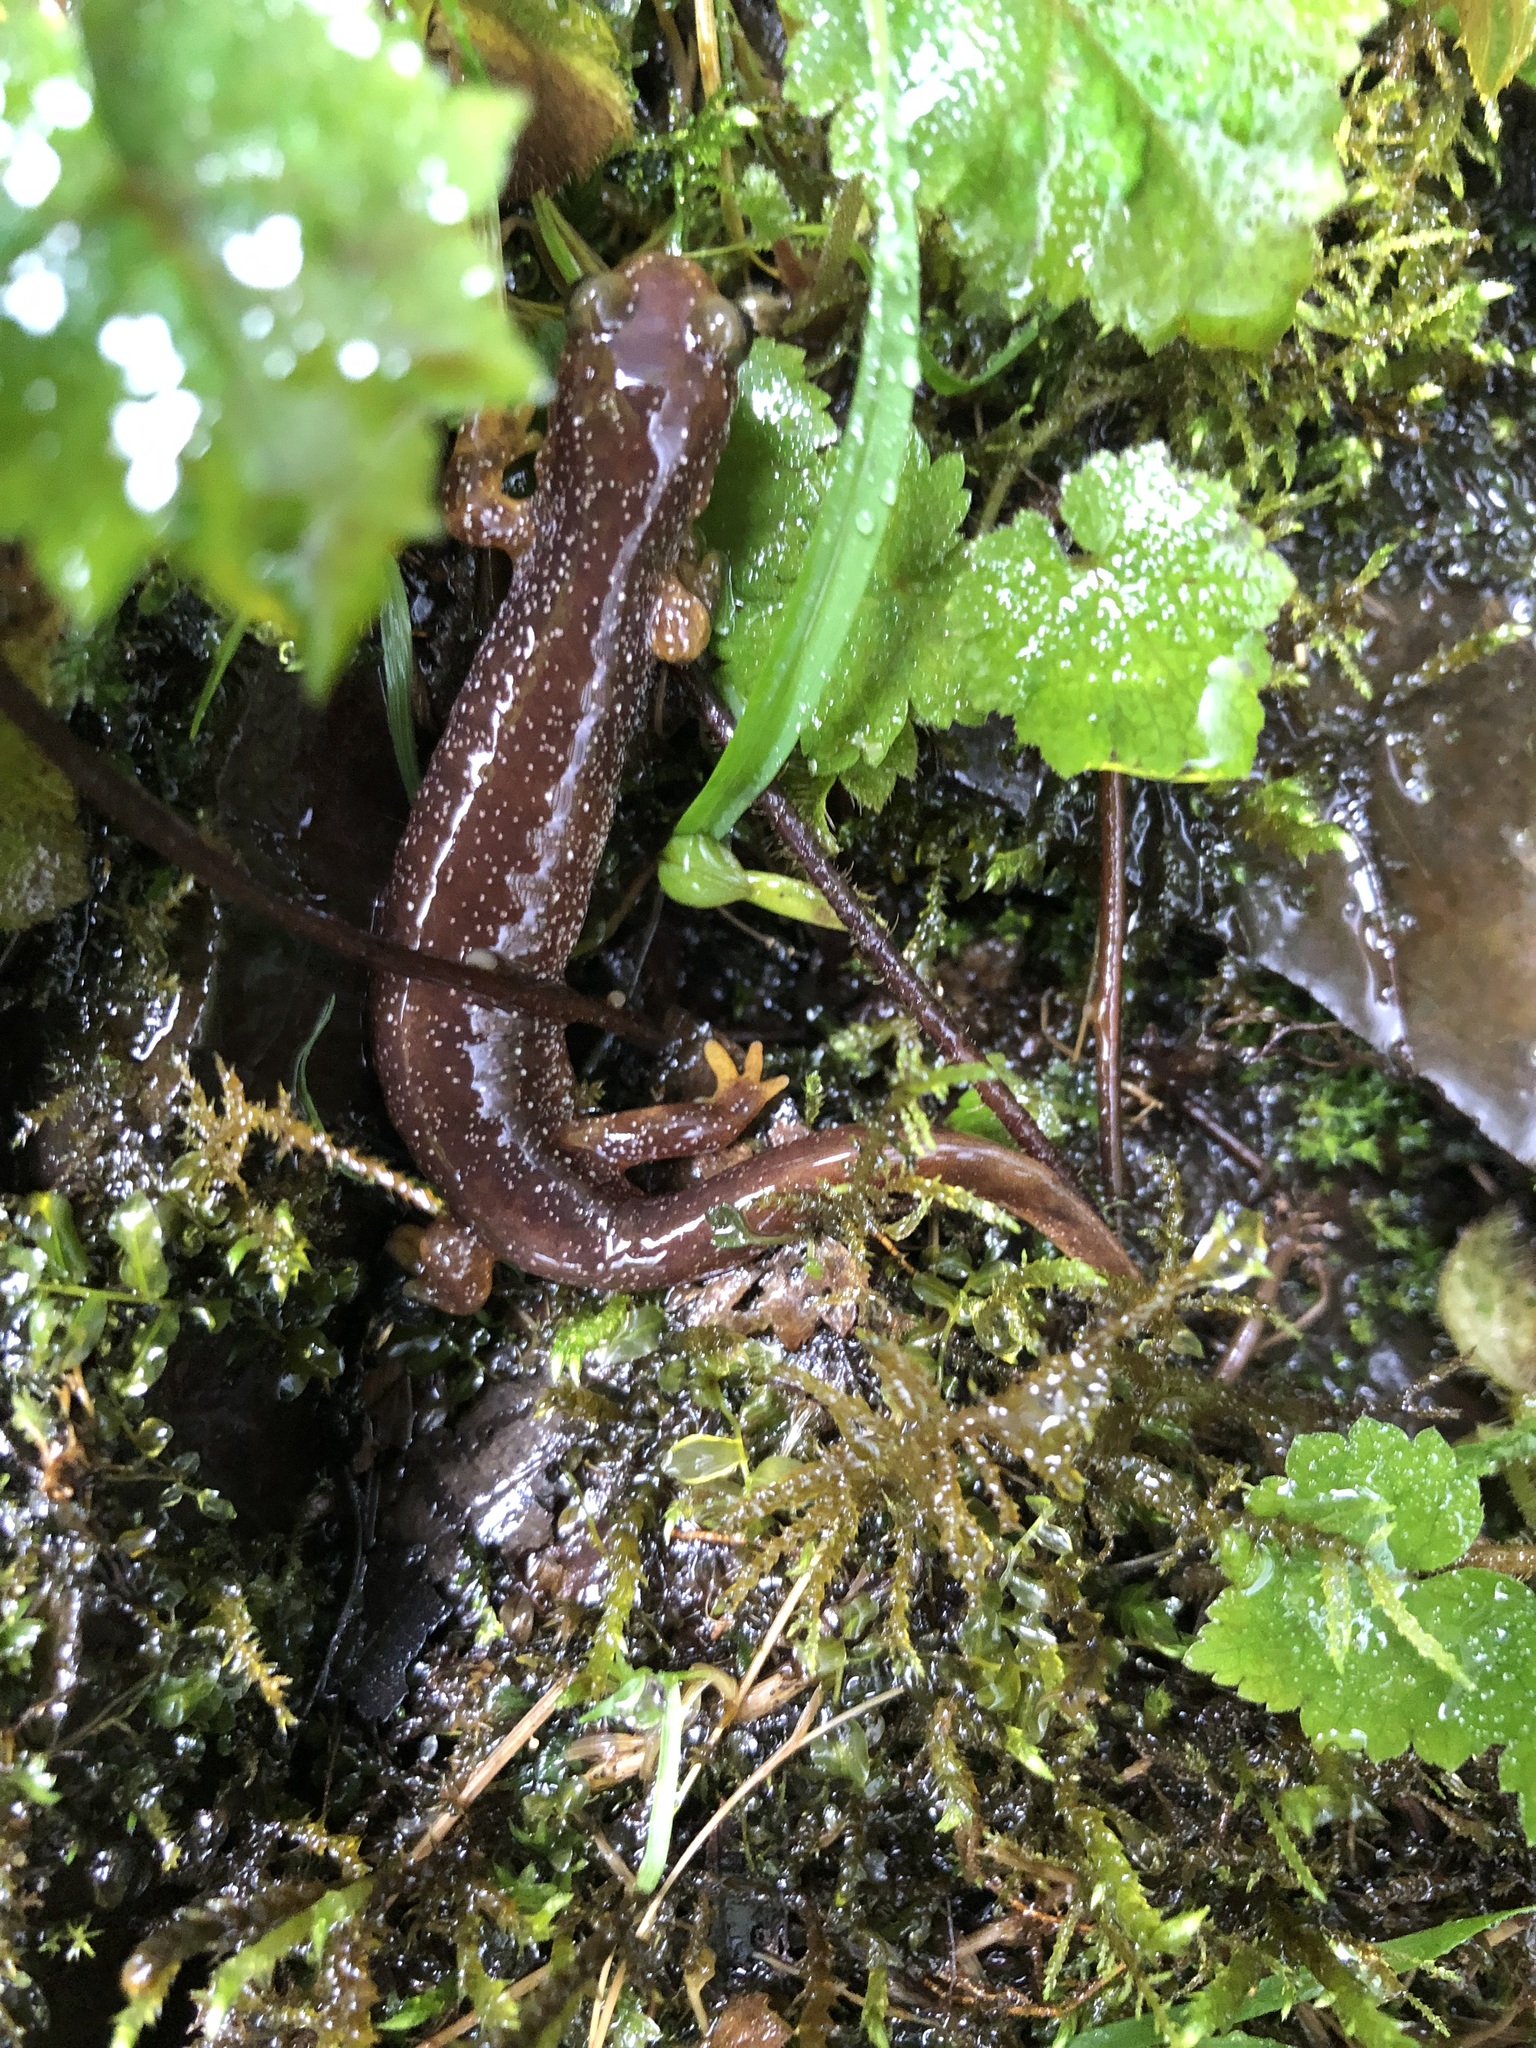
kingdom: Animalia
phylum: Chordata
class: Amphibia
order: Caudata
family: Rhyacotritonidae
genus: Rhyacotriton
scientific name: Rhyacotriton kezeri
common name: Columbia torrent salamander
